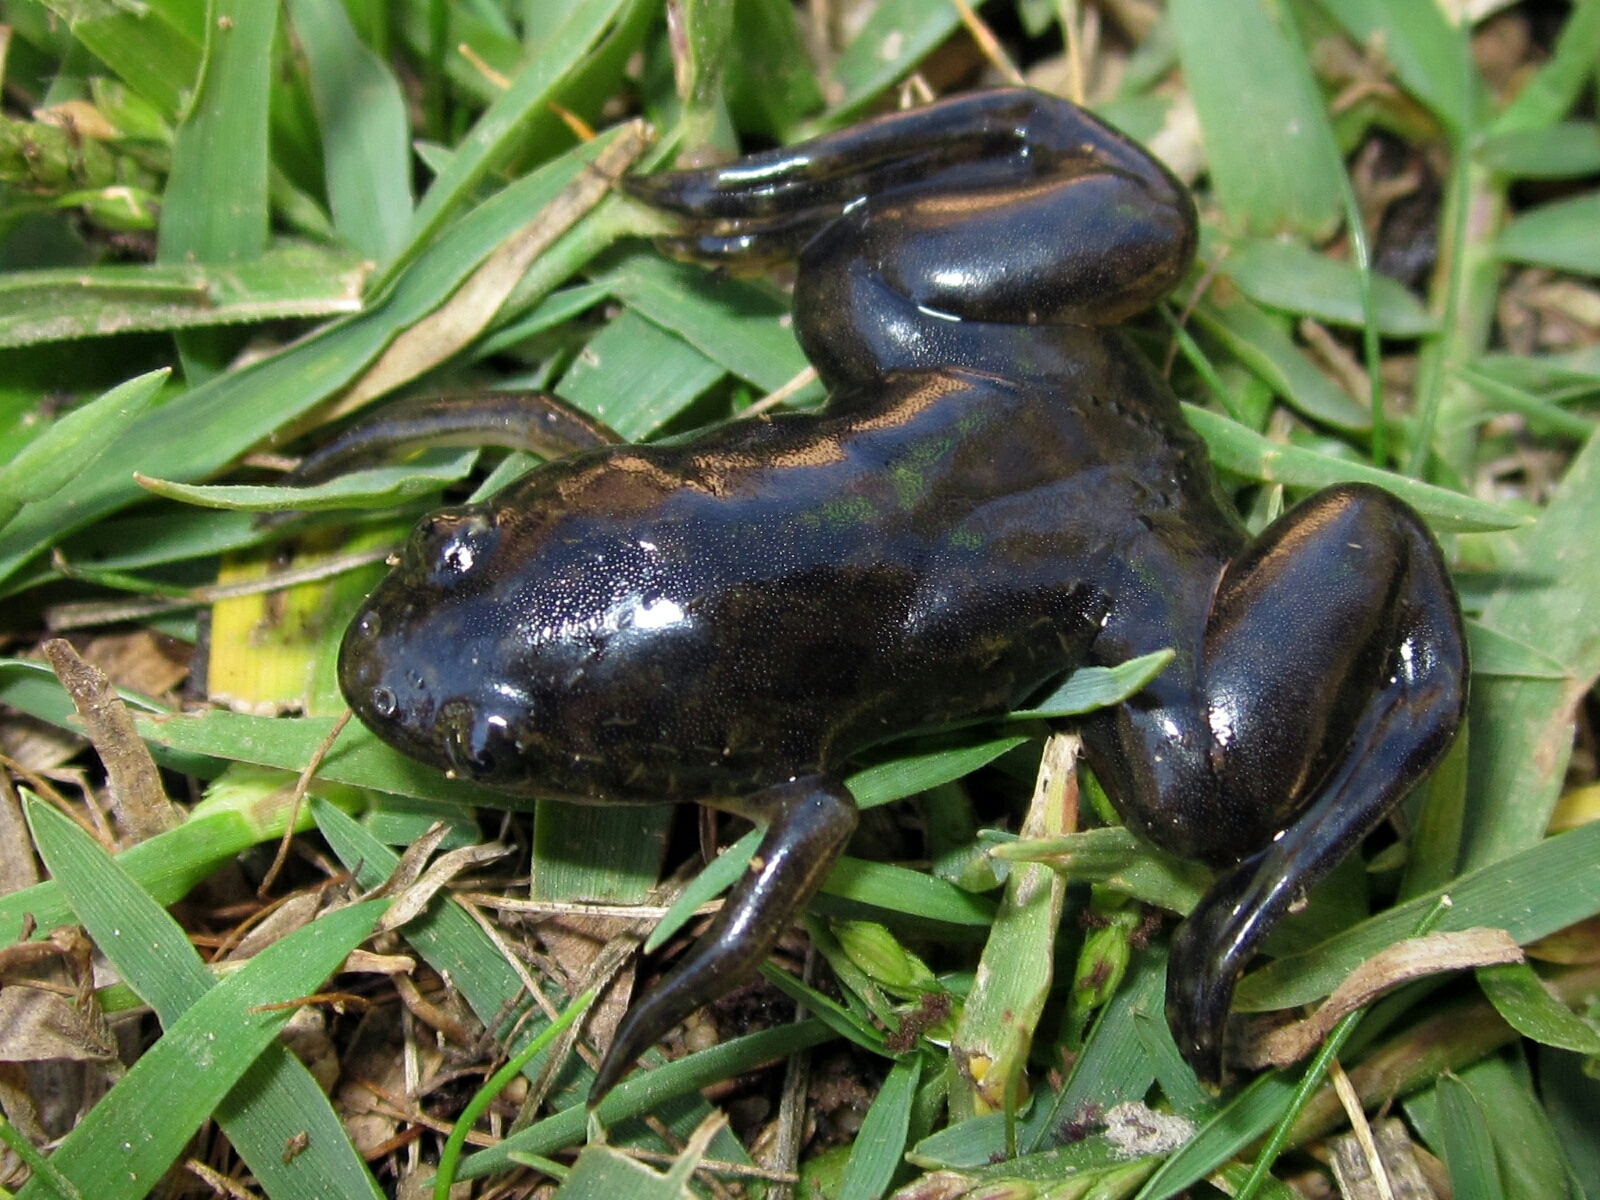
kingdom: Animalia
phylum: Chordata
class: Amphibia
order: Anura
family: Pipidae
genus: Xenopus
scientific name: Xenopus laevis
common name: African clawed frog
